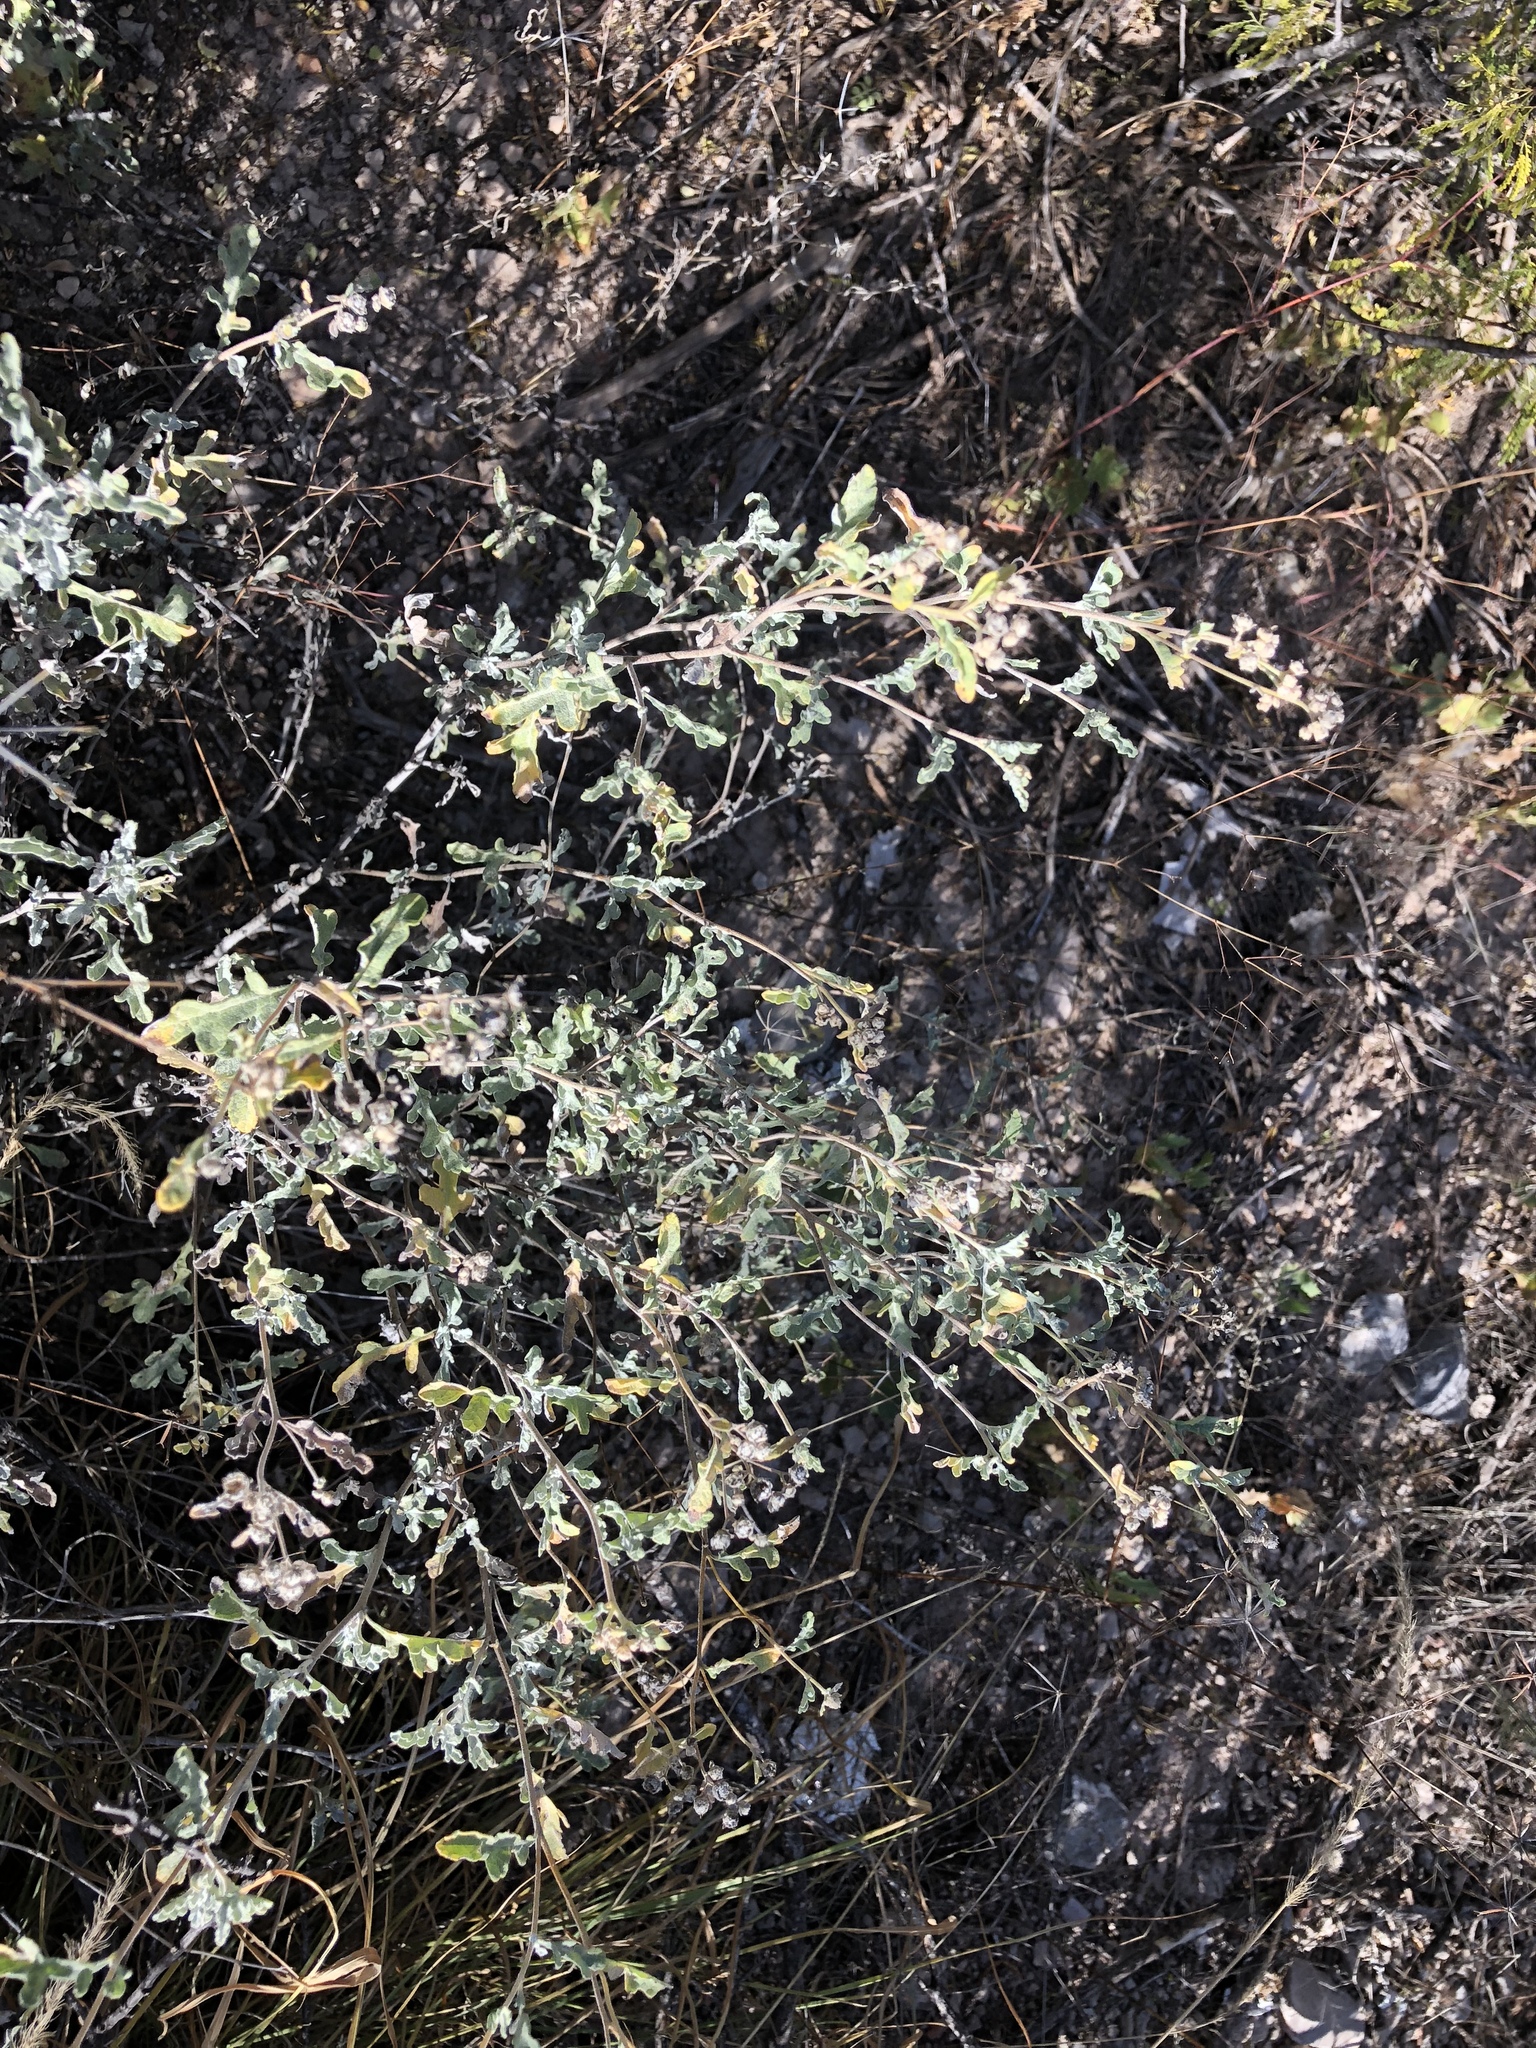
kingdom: Plantae
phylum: Tracheophyta
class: Magnoliopsida
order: Asterales
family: Asteraceae
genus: Parthenium
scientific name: Parthenium incanum
